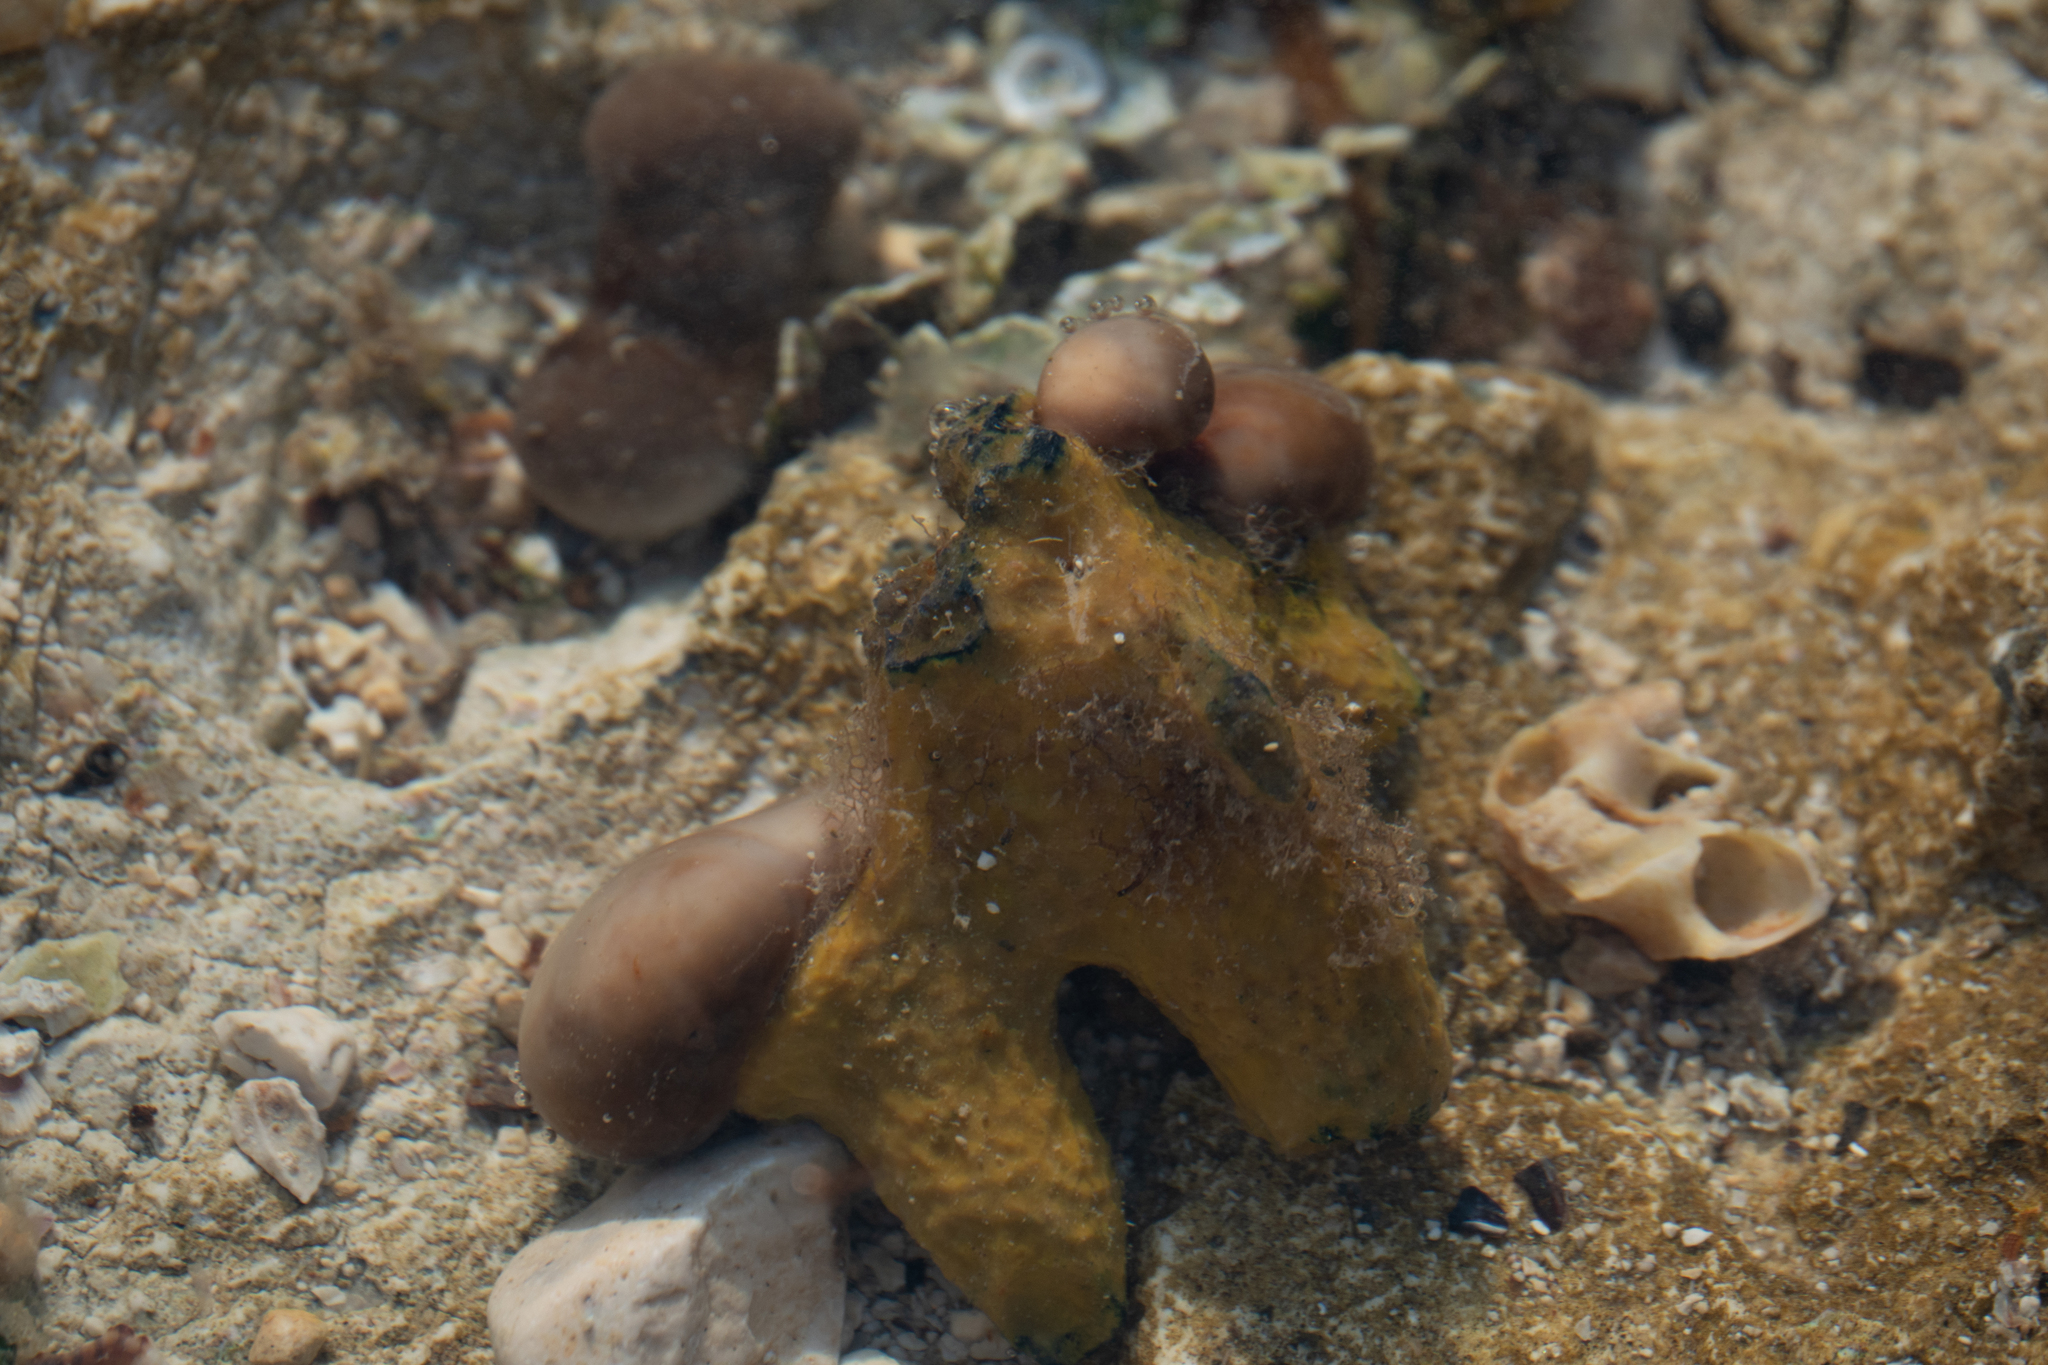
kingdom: Animalia
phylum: Porifera
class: Demospongiae
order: Verongiida
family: Aplysinidae
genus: Aplysina
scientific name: Aplysina aerophoba
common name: Aureate sponge
